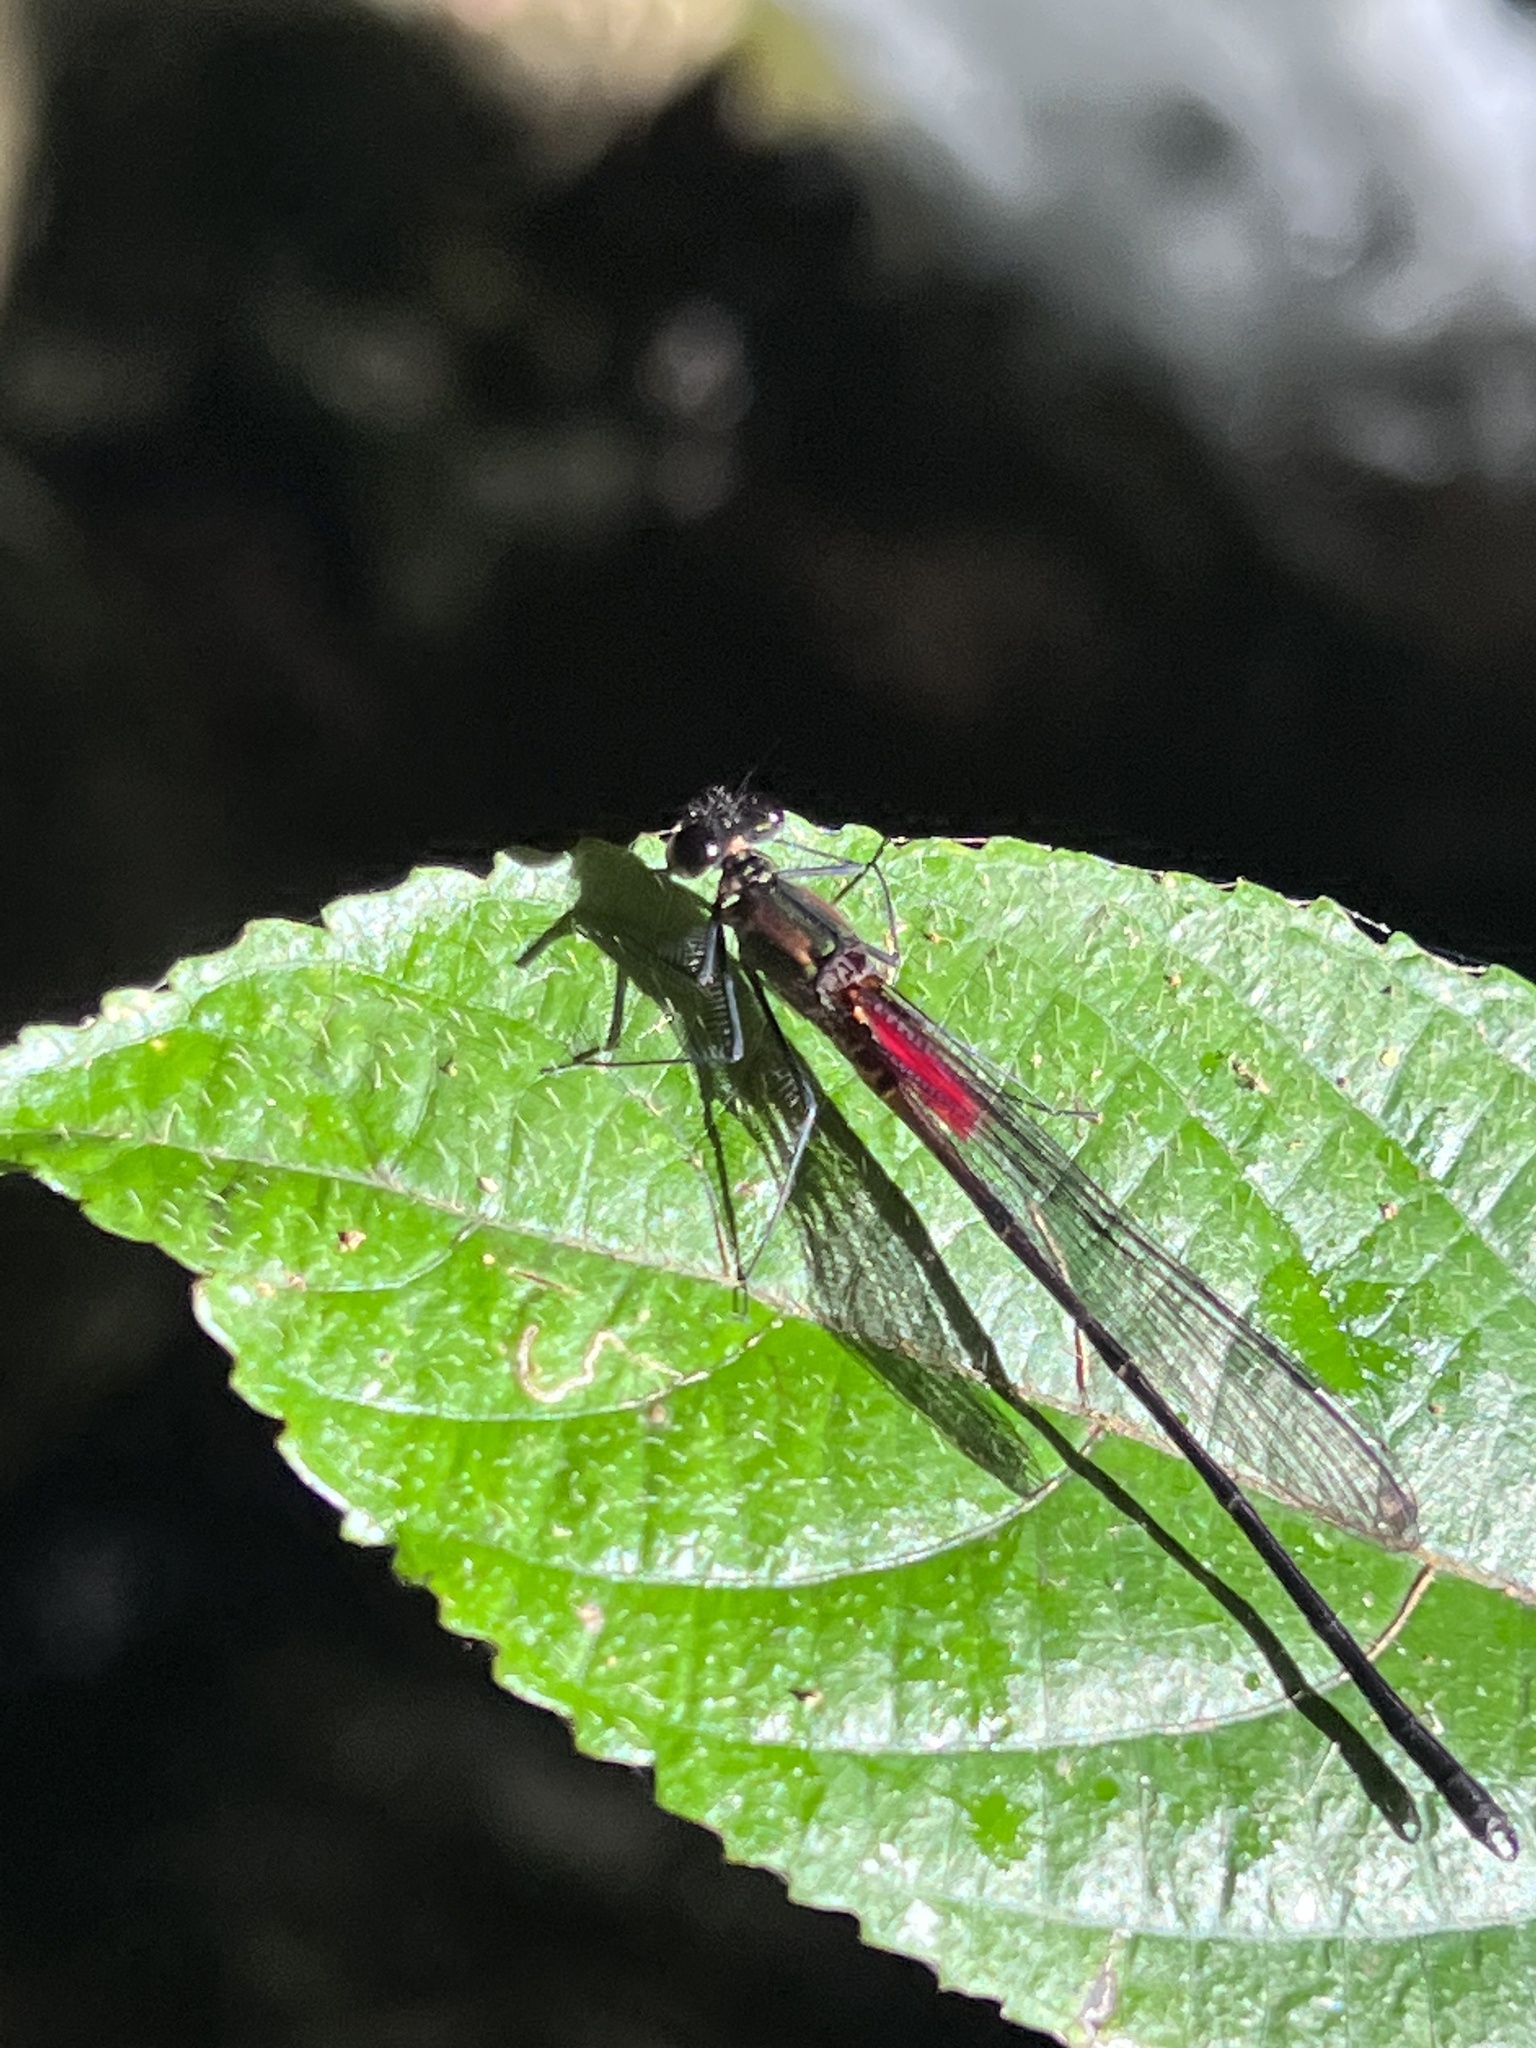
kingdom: Animalia
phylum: Arthropoda
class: Insecta
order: Odonata
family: Calopterygidae
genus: Hetaerina
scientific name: Hetaerina cruentata
